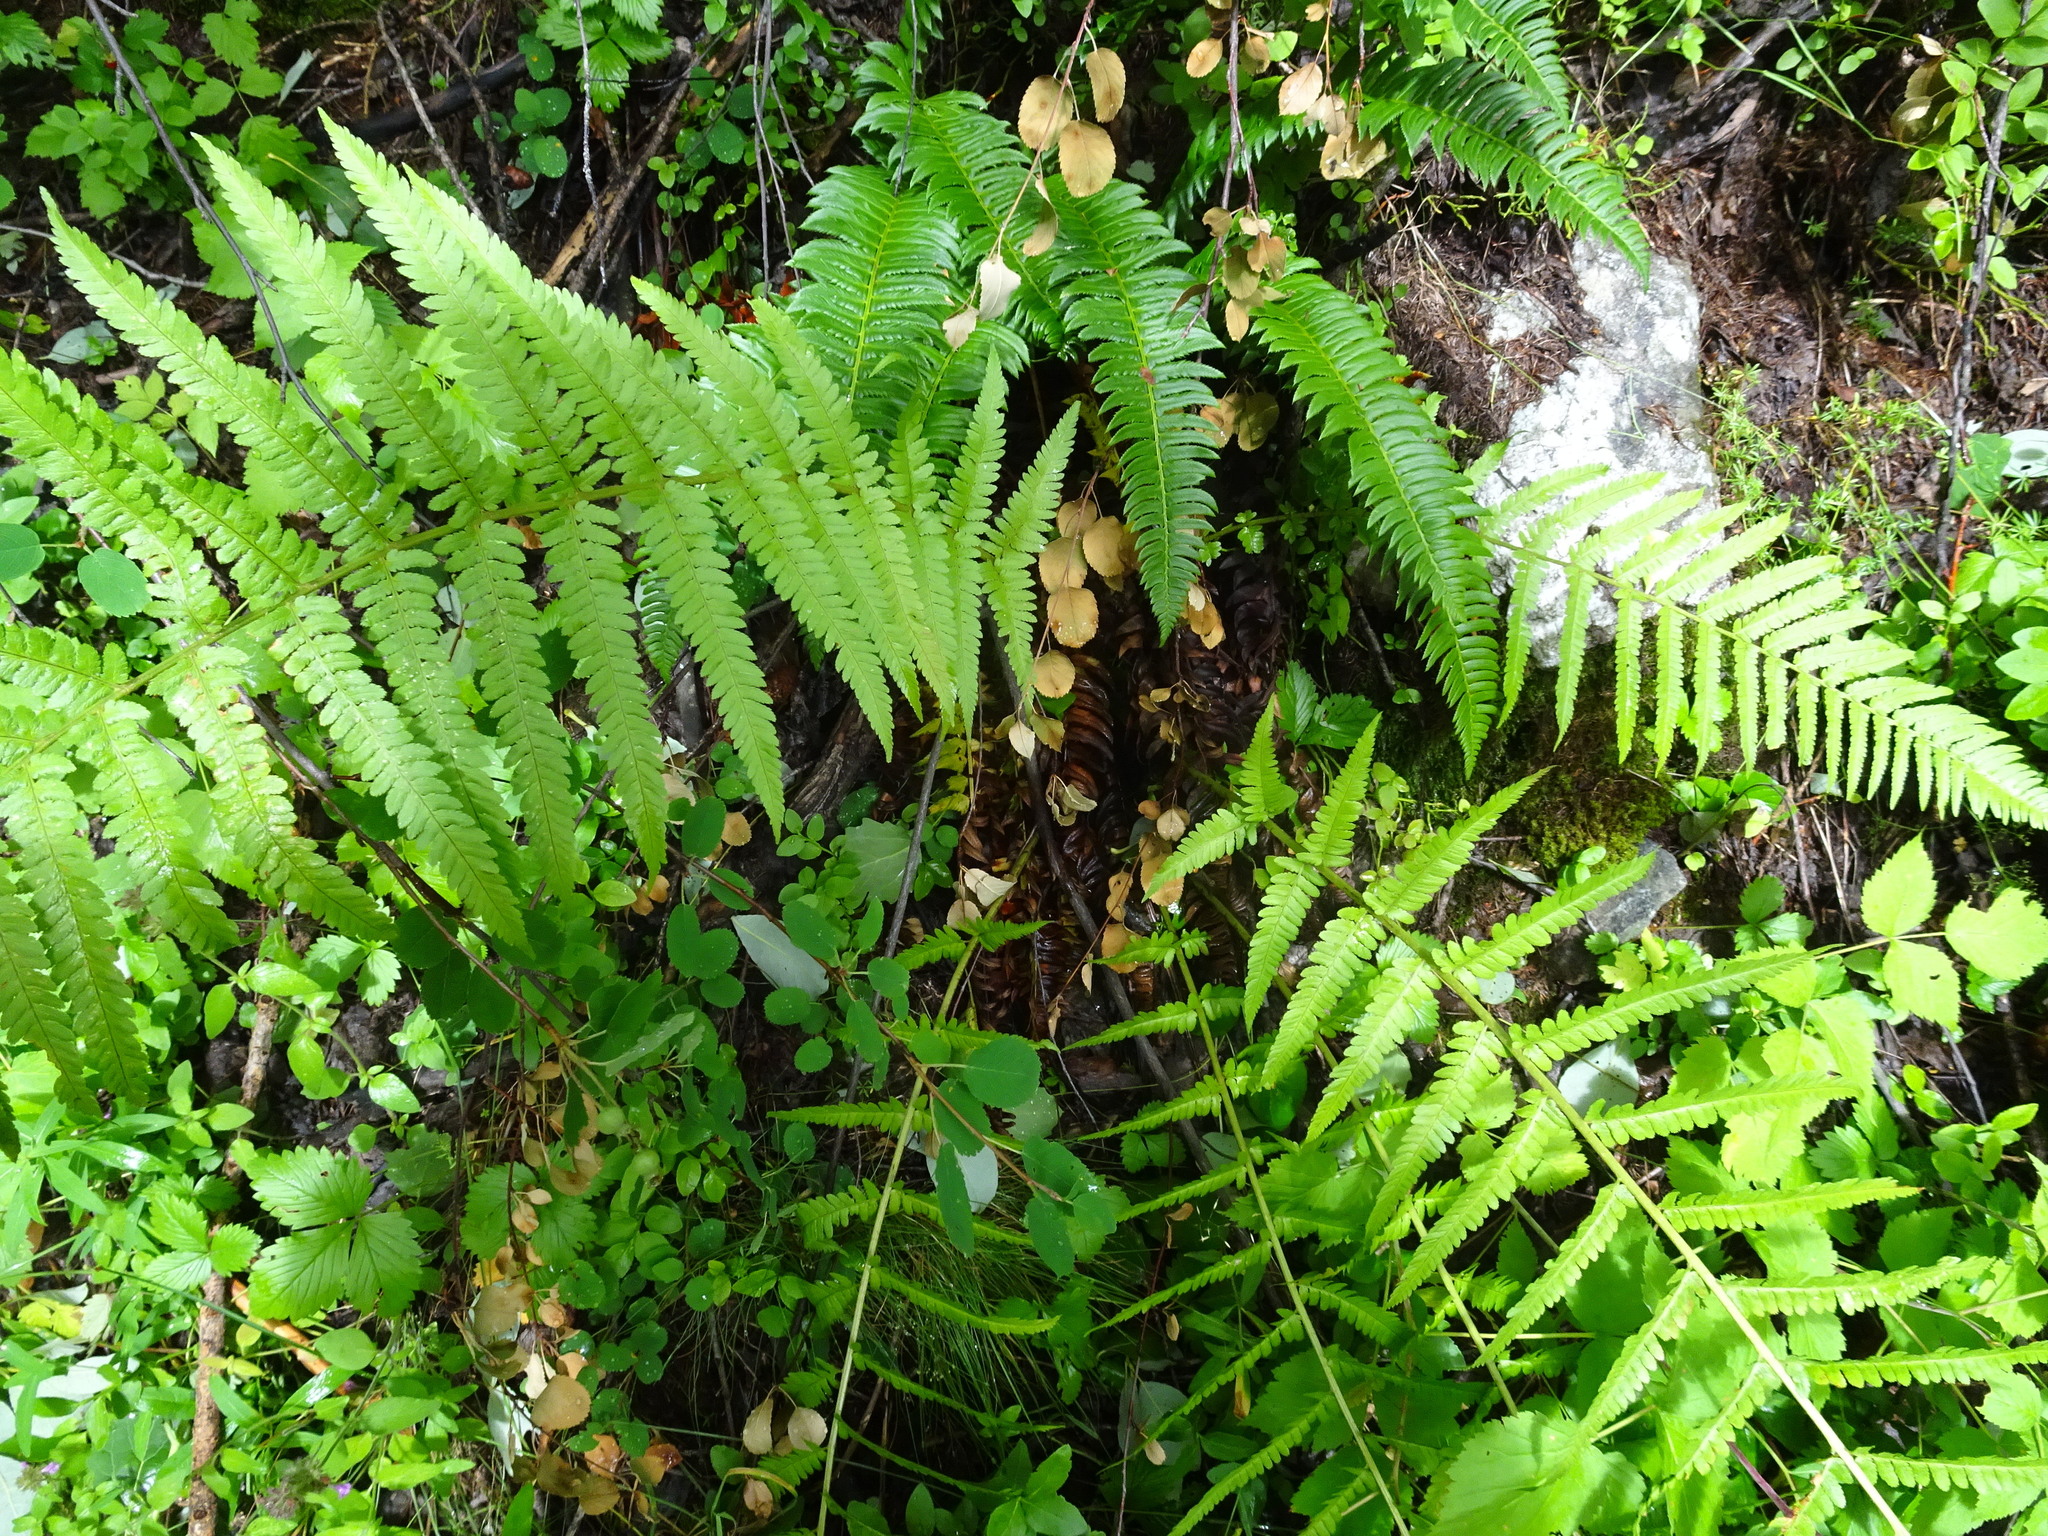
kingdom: Plantae
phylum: Tracheophyta
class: Polypodiopsida
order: Polypodiales
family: Dryopteridaceae
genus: Dryopteris
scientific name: Dryopteris filix-mas
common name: Male fern
